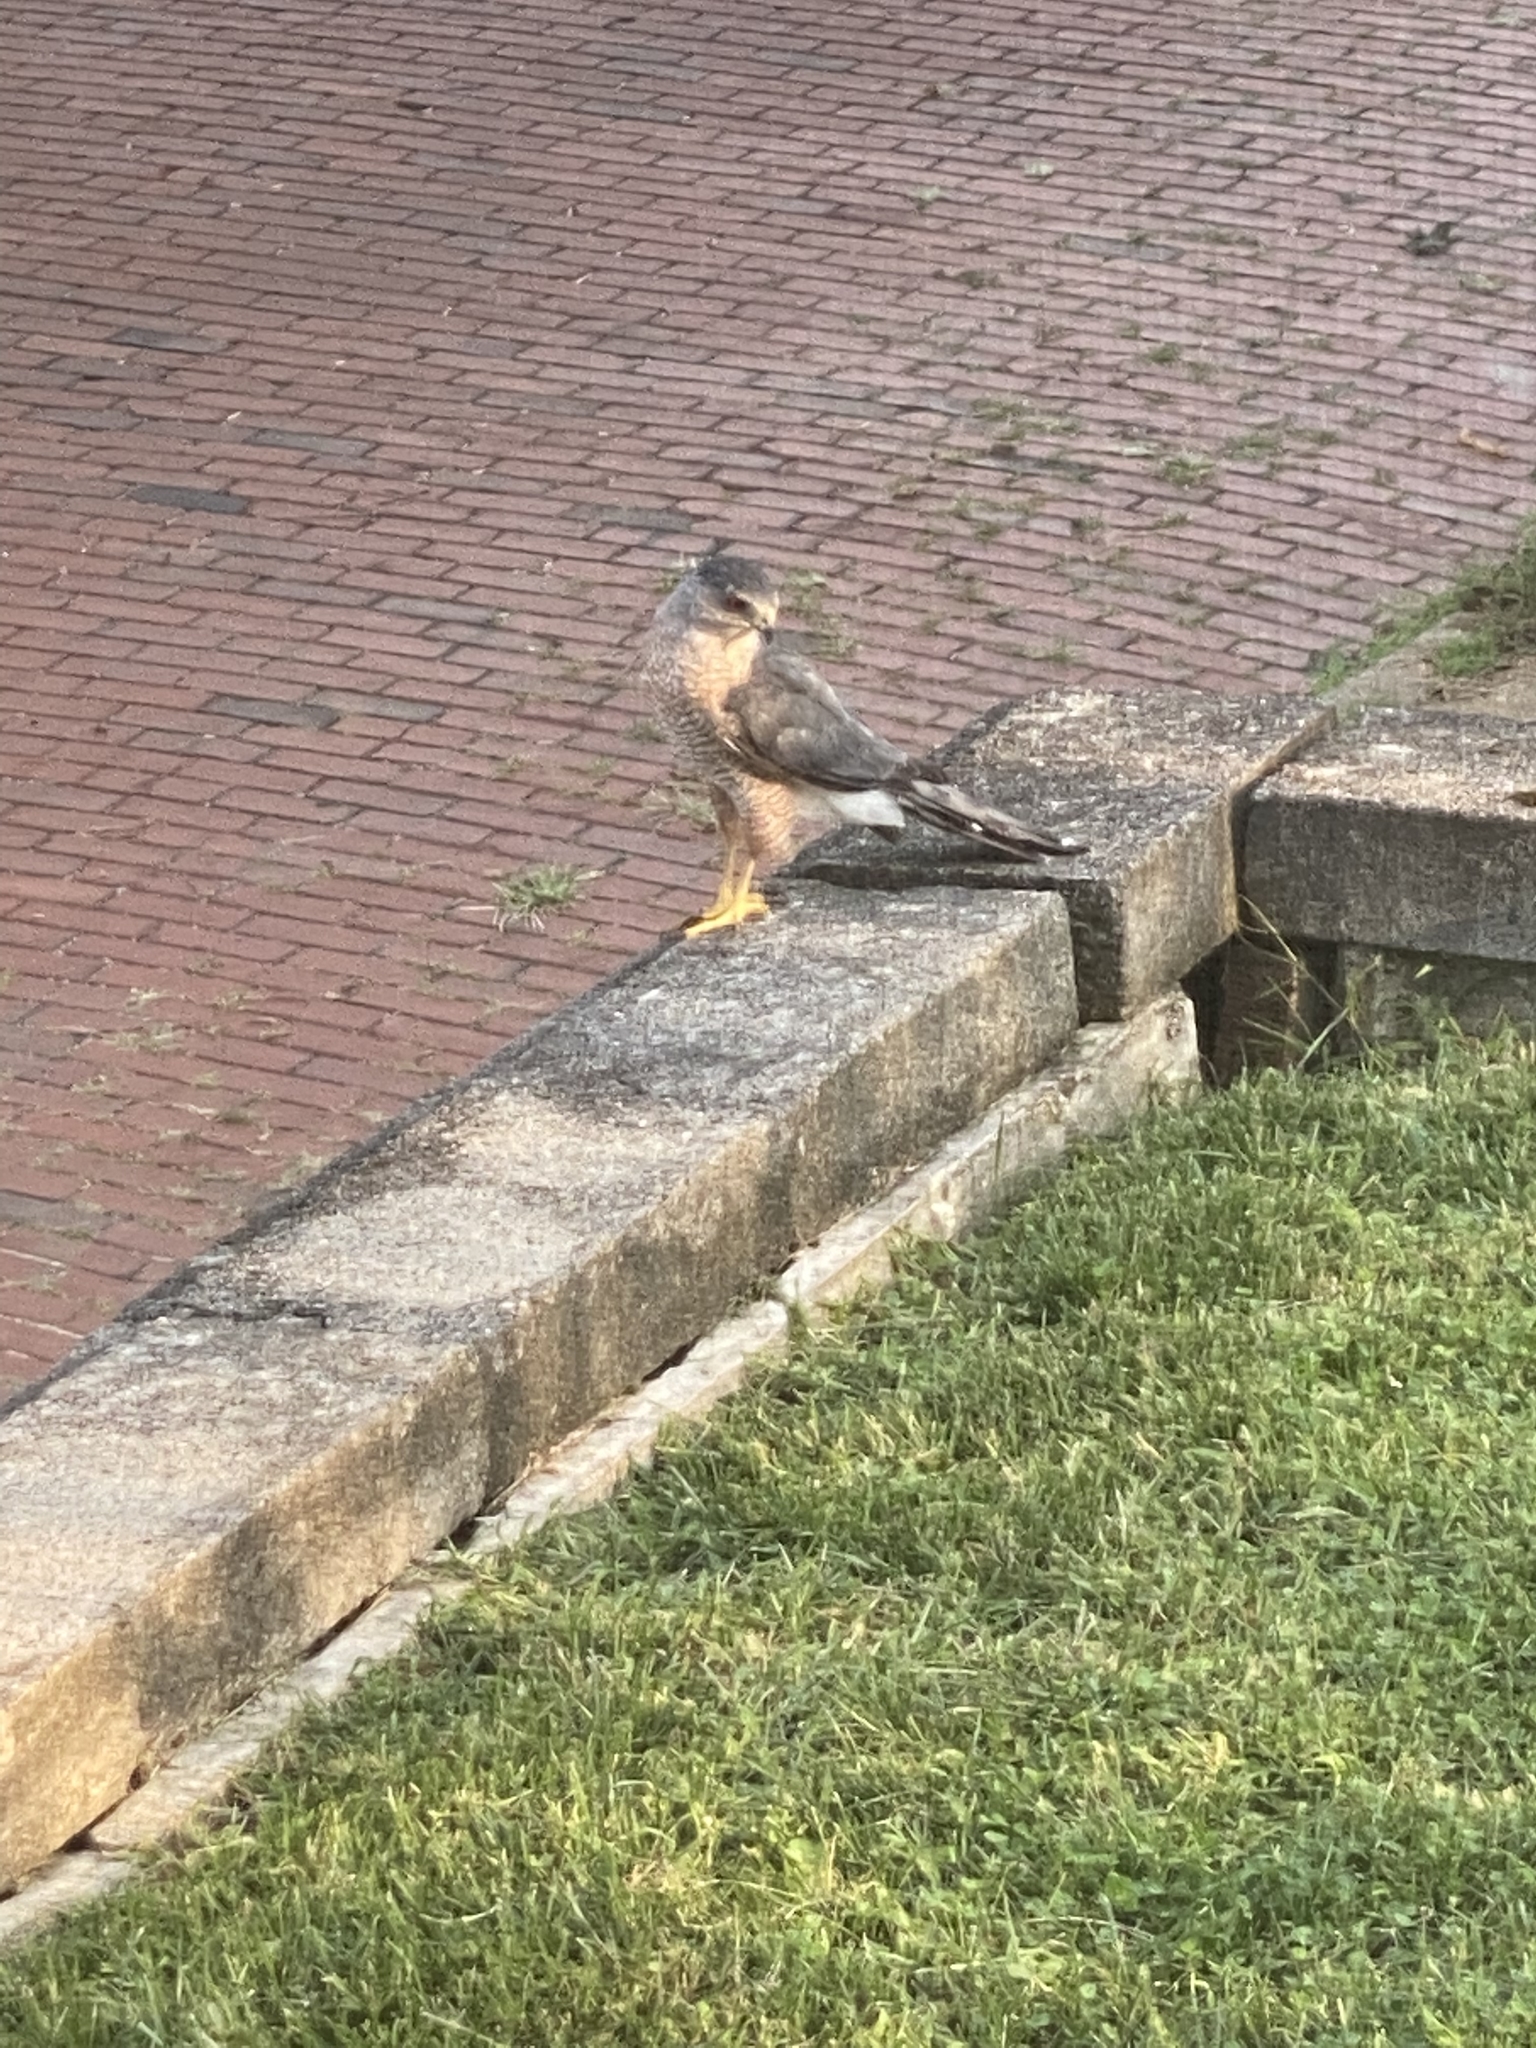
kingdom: Animalia
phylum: Chordata
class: Aves
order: Accipitriformes
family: Accipitridae
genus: Accipiter
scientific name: Accipiter cooperii
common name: Cooper's hawk
